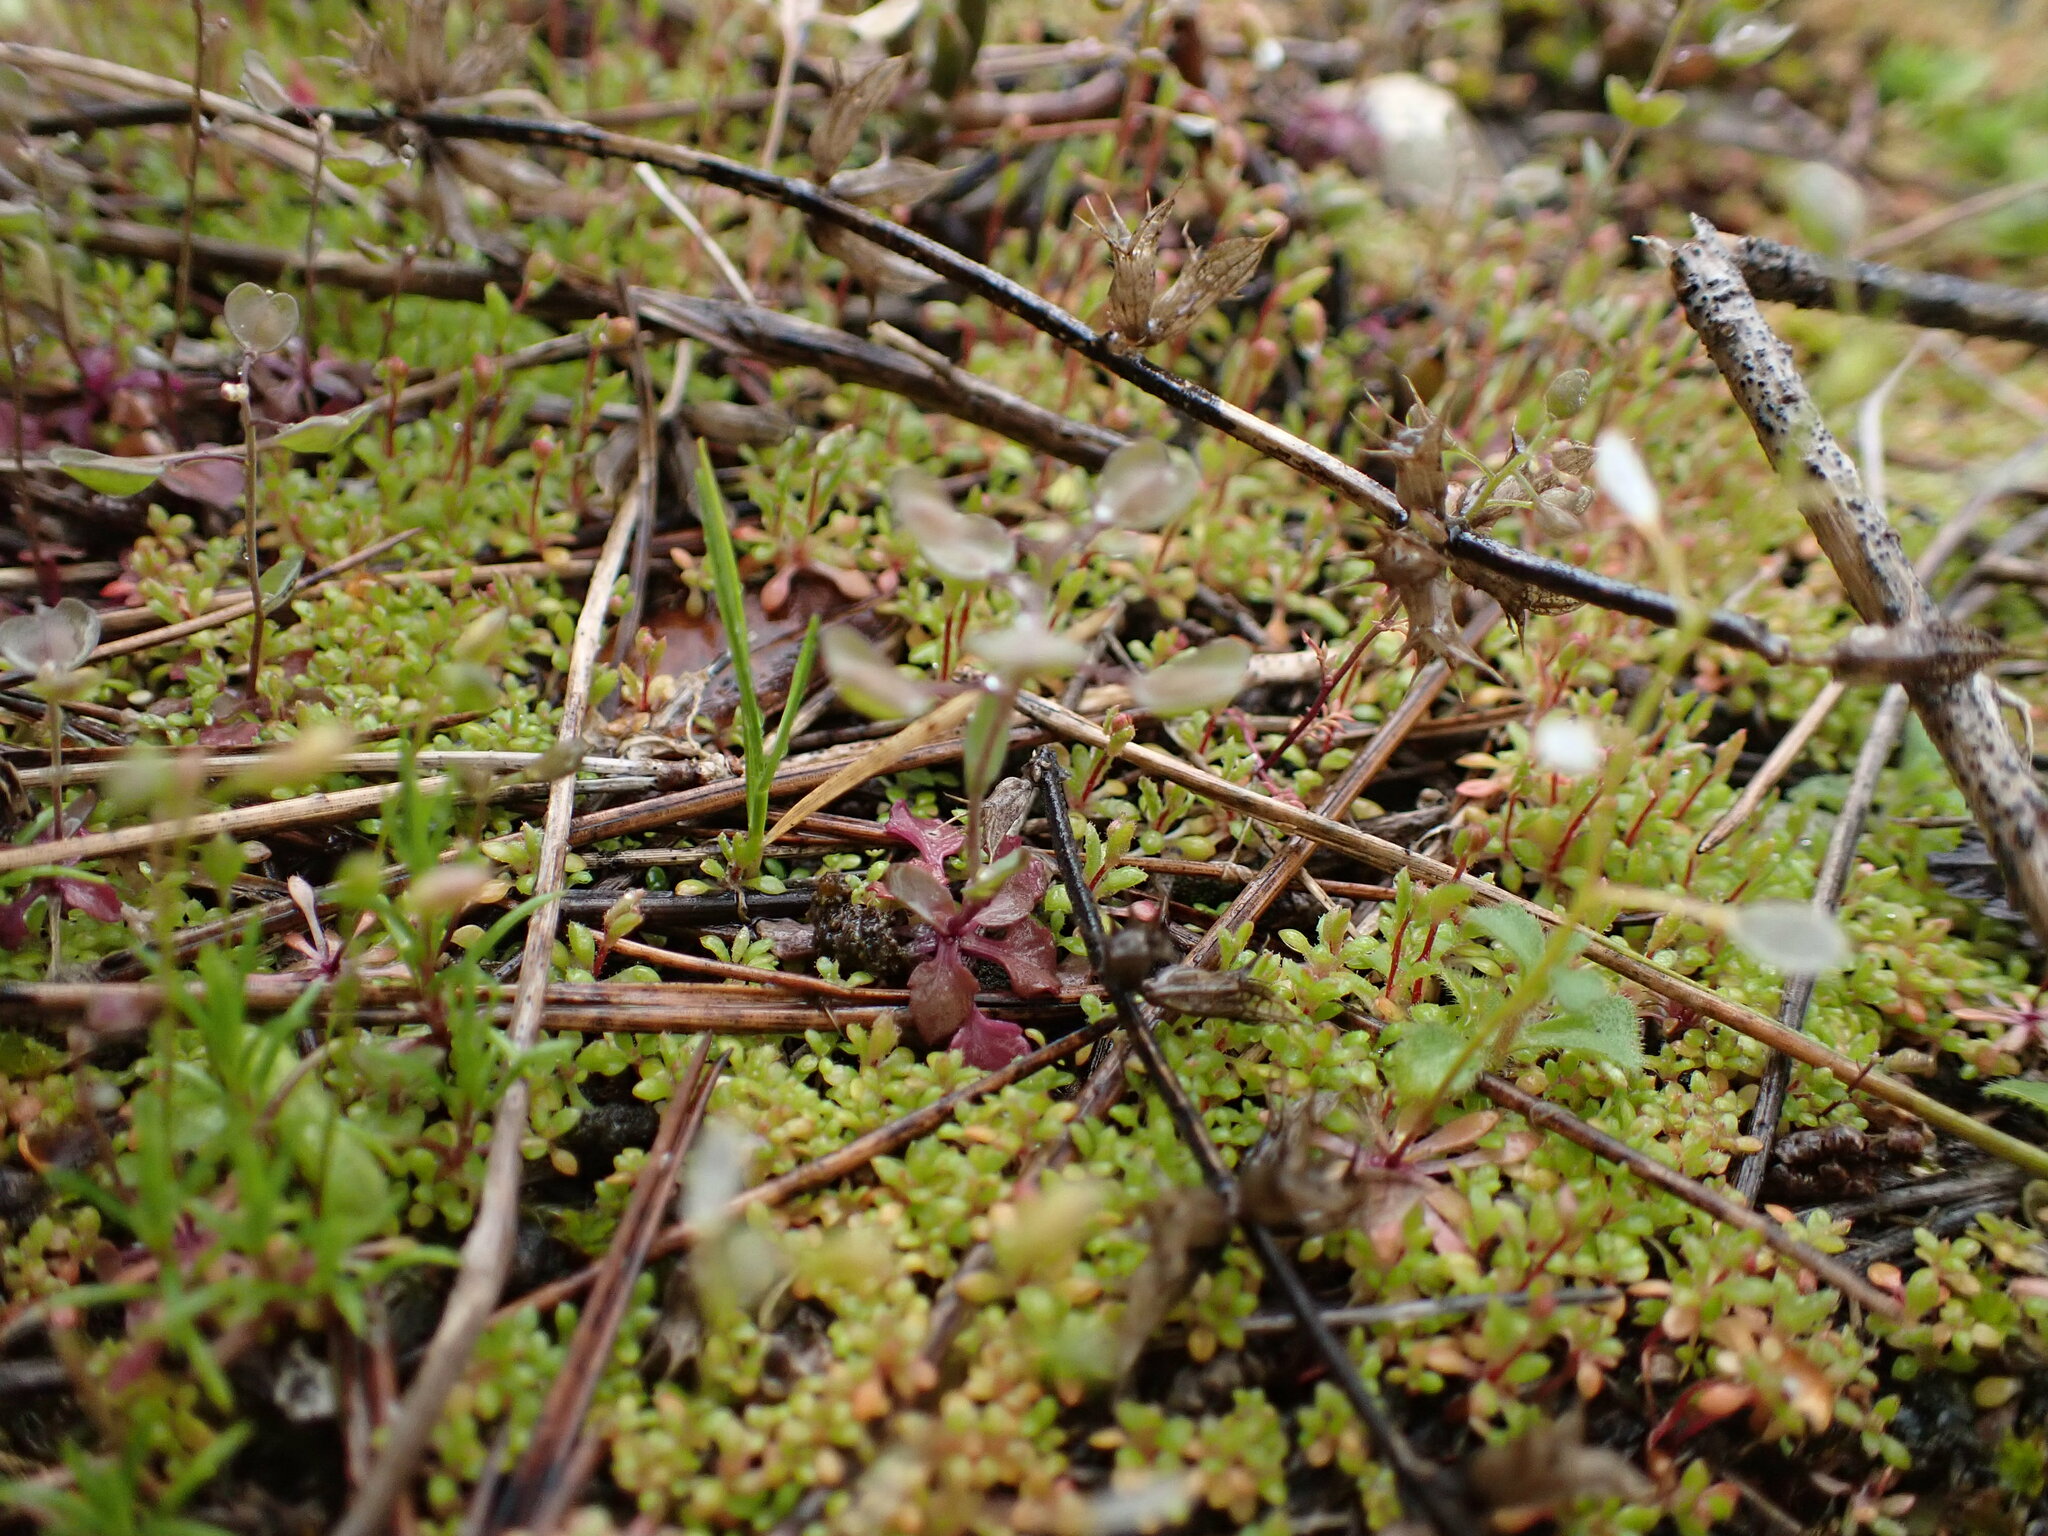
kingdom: Plantae
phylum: Tracheophyta
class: Magnoliopsida
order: Brassicales
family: Brassicaceae
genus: Noccaea
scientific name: Noccaea perfoliata
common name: Perfoliate pennycress
